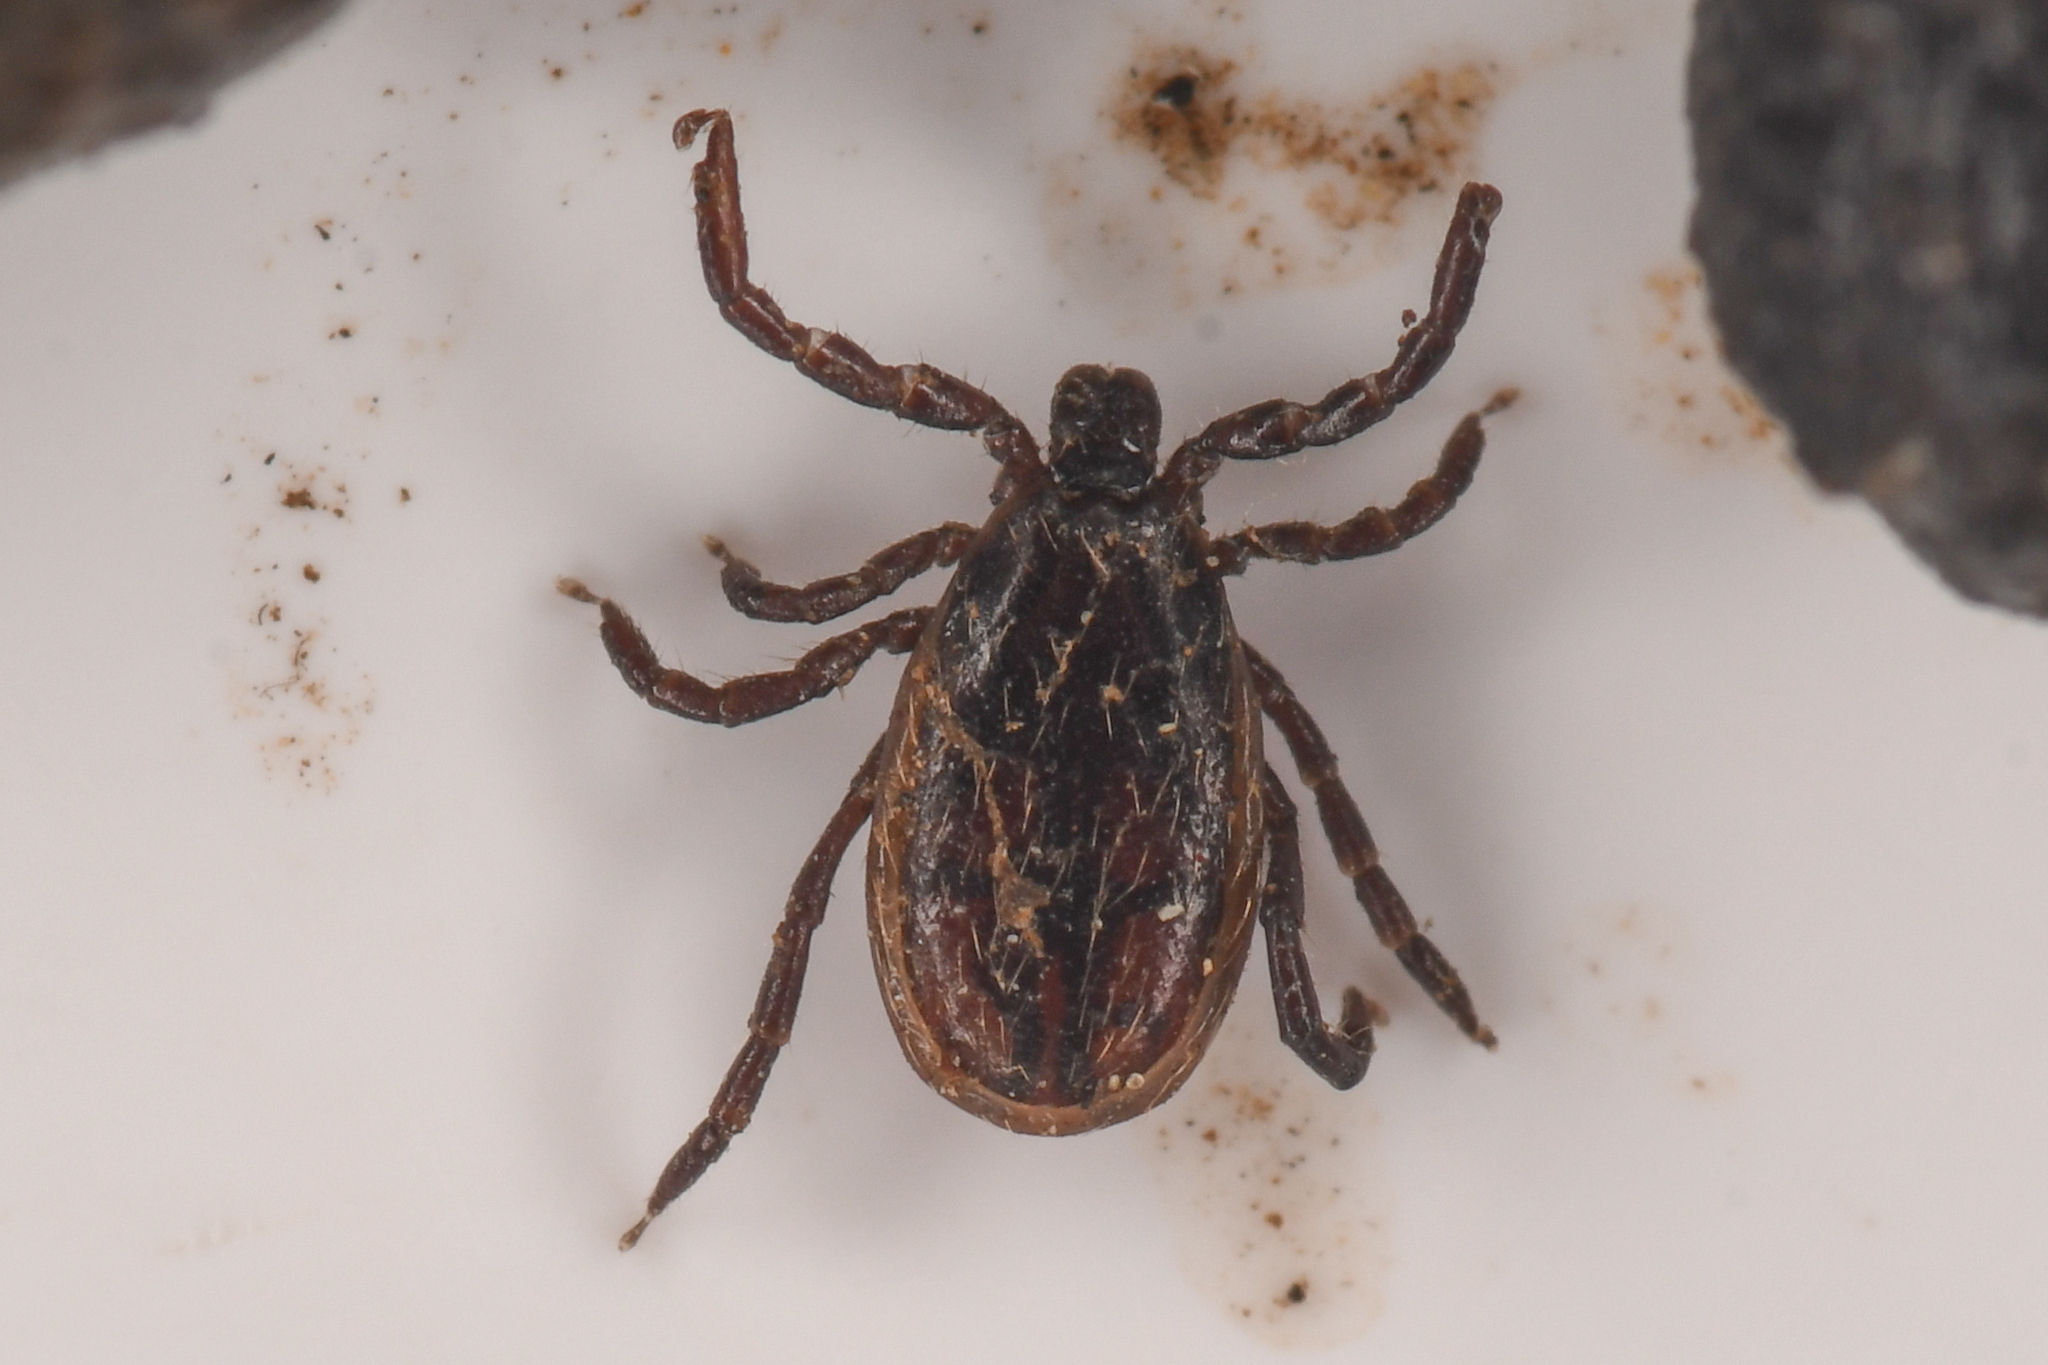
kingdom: Animalia
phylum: Arthropoda
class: Arachnida
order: Ixodida
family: Ixodidae
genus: Ixodes
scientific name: Ixodes pacificus
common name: California black-legged tick
